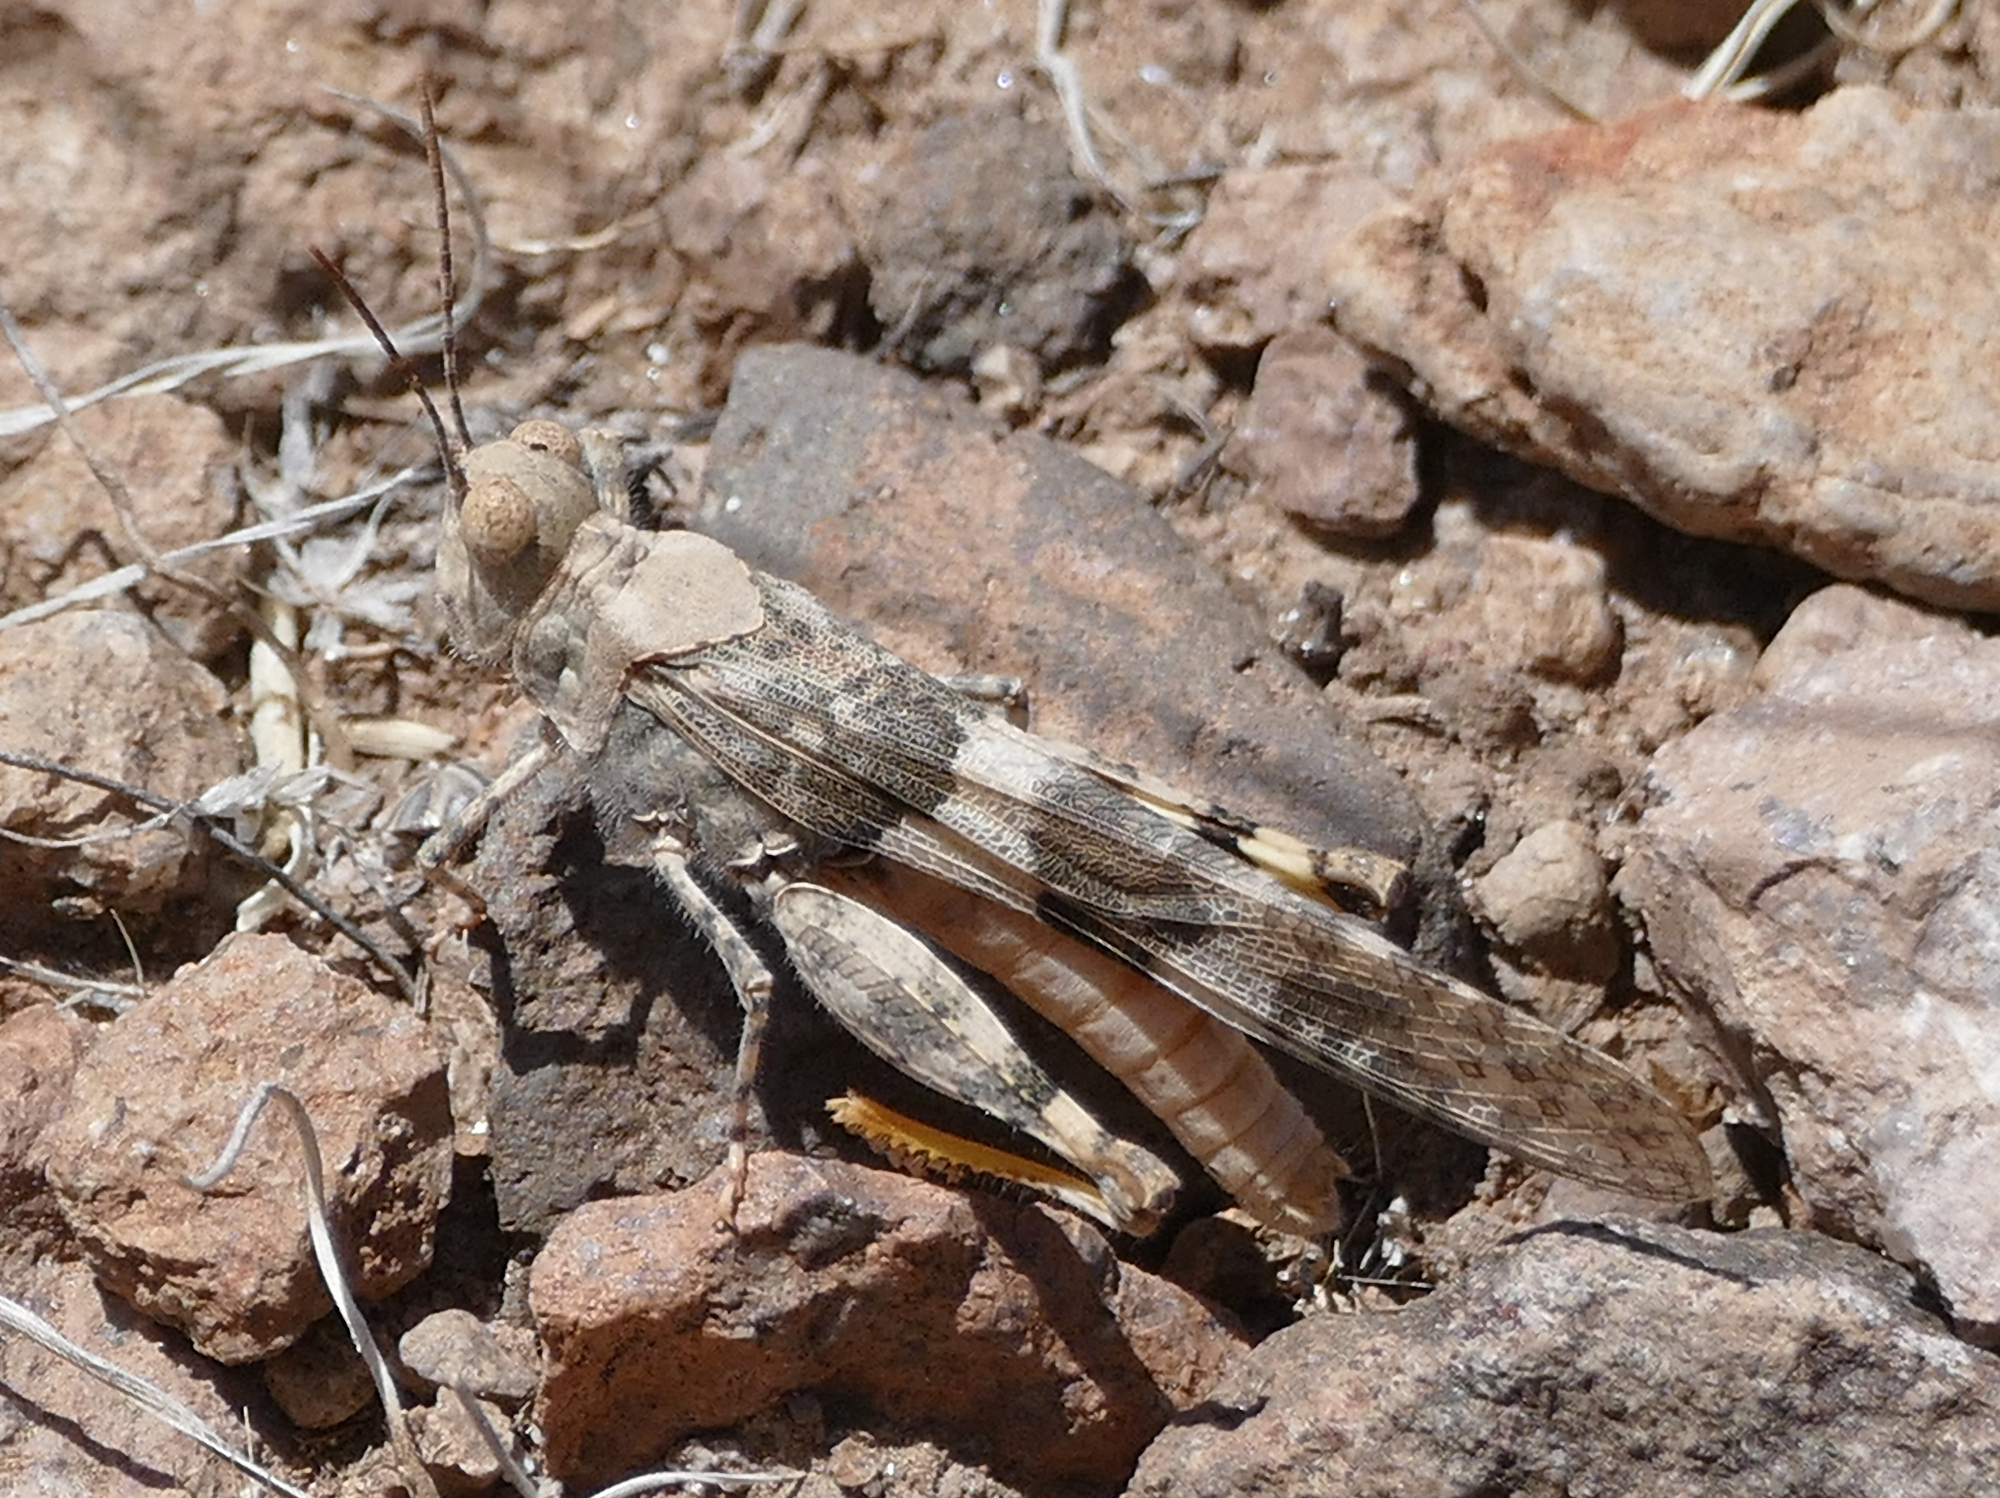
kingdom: Animalia
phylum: Arthropoda
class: Insecta
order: Orthoptera
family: Acrididae
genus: Trimerotropis
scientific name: Trimerotropis pallidipennis
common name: Pallid-winged grasshopper
